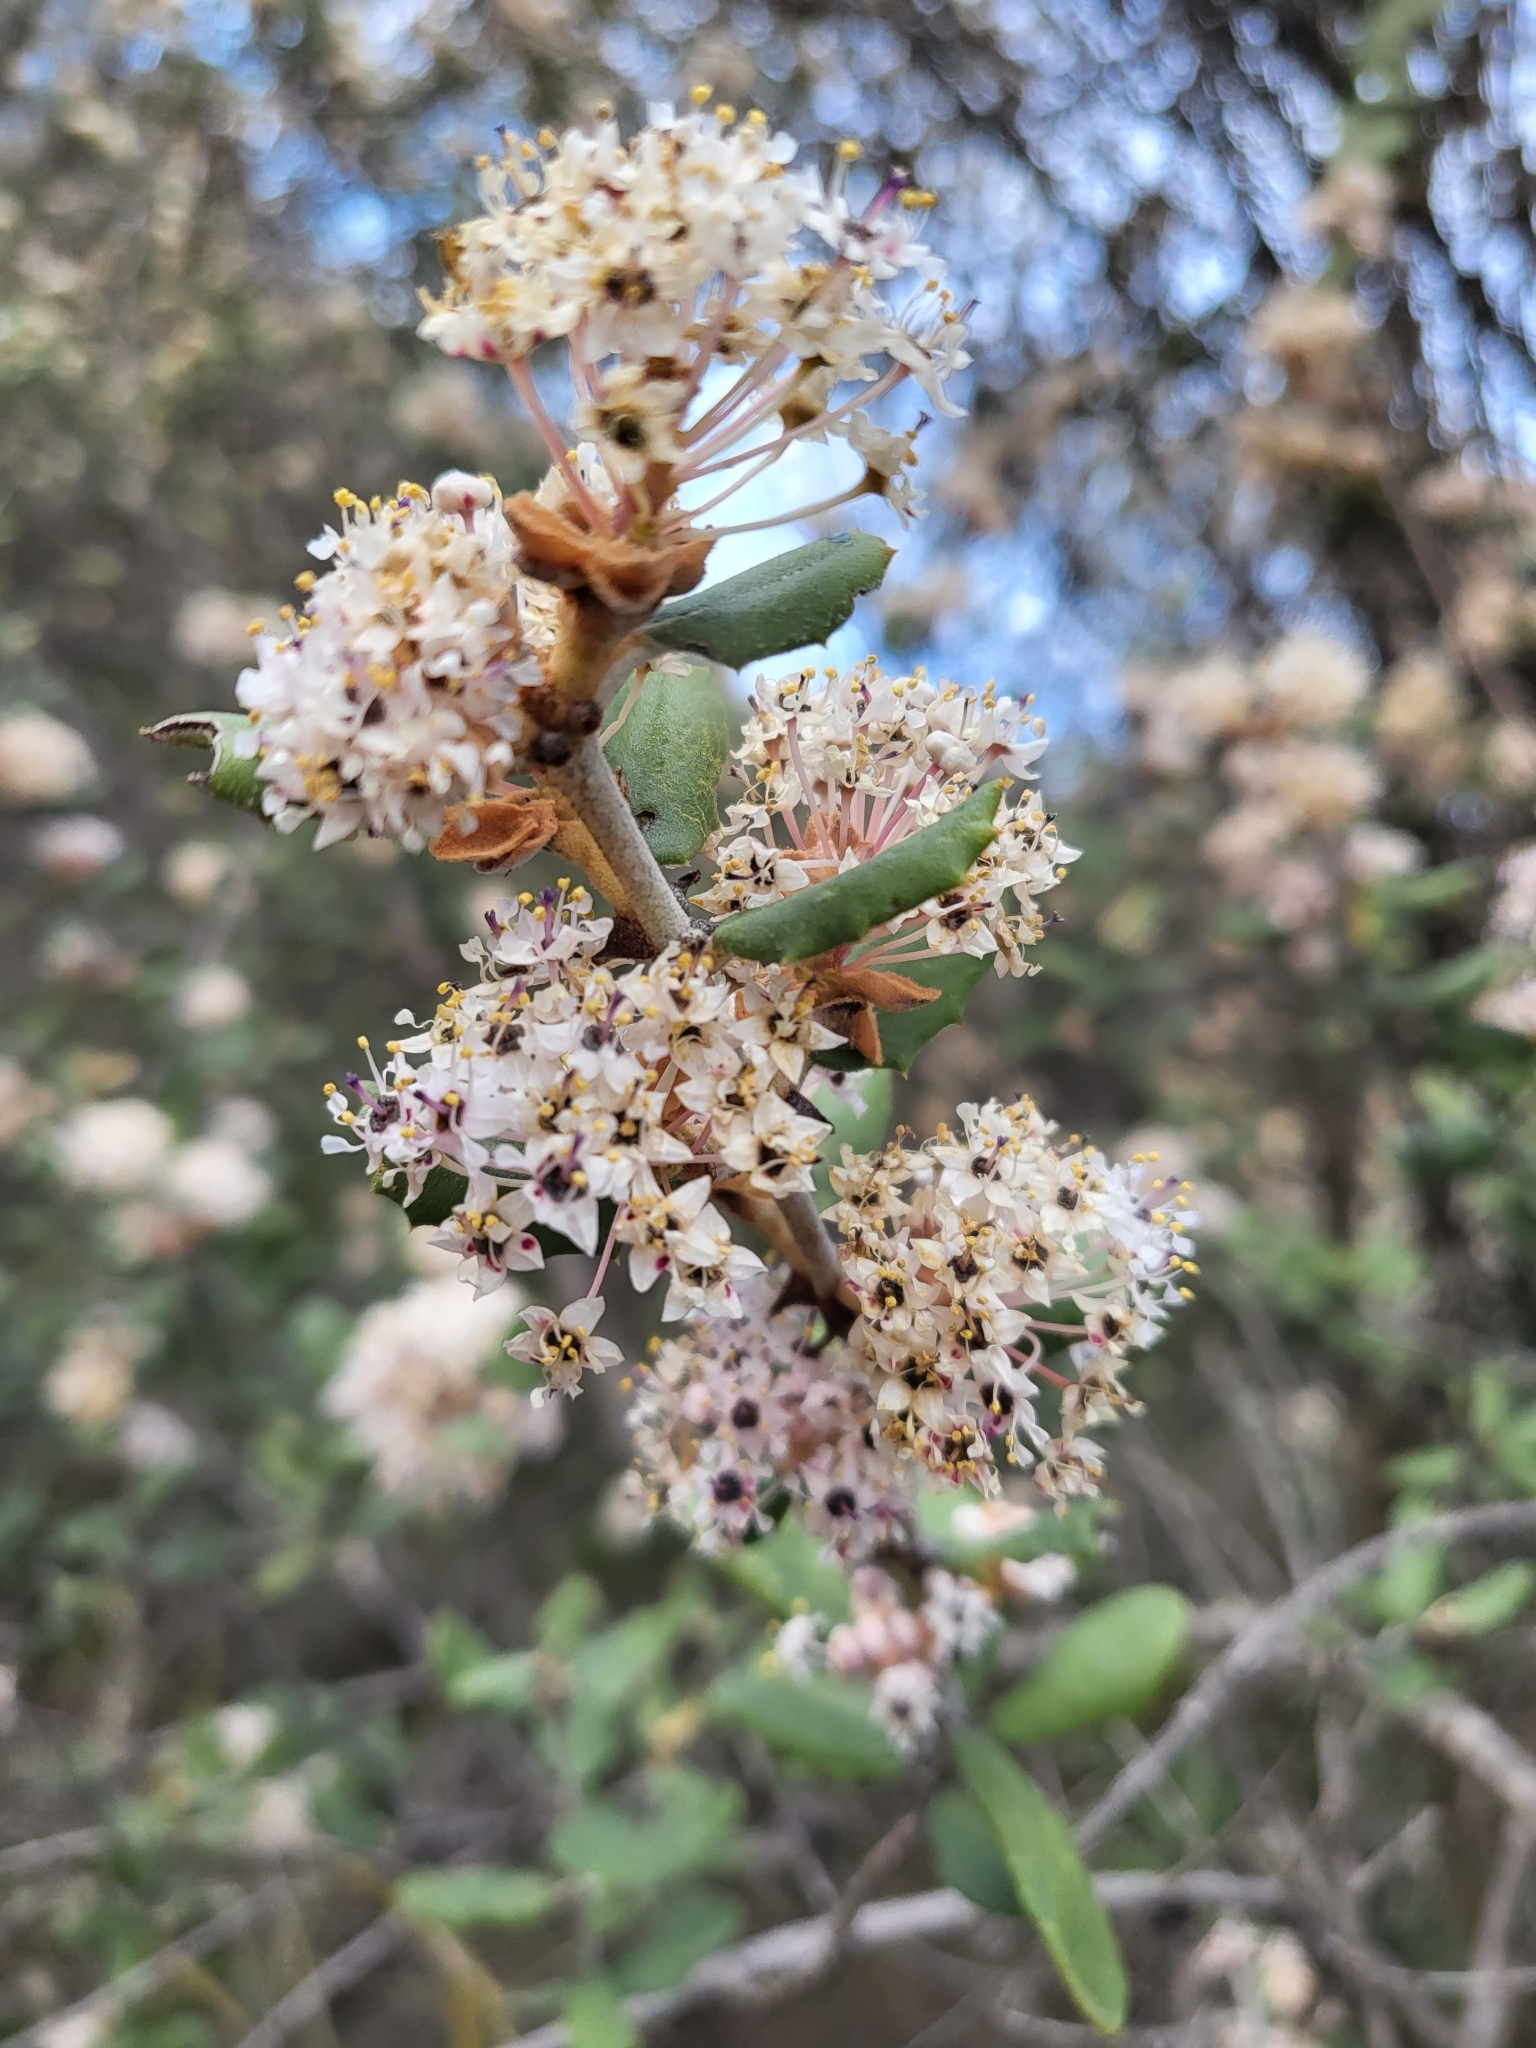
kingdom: Plantae
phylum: Tracheophyta
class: Magnoliopsida
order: Rosales
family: Rhamnaceae
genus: Ceanothus
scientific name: Ceanothus crassifolius
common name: Hoaryleaf ceanothus
